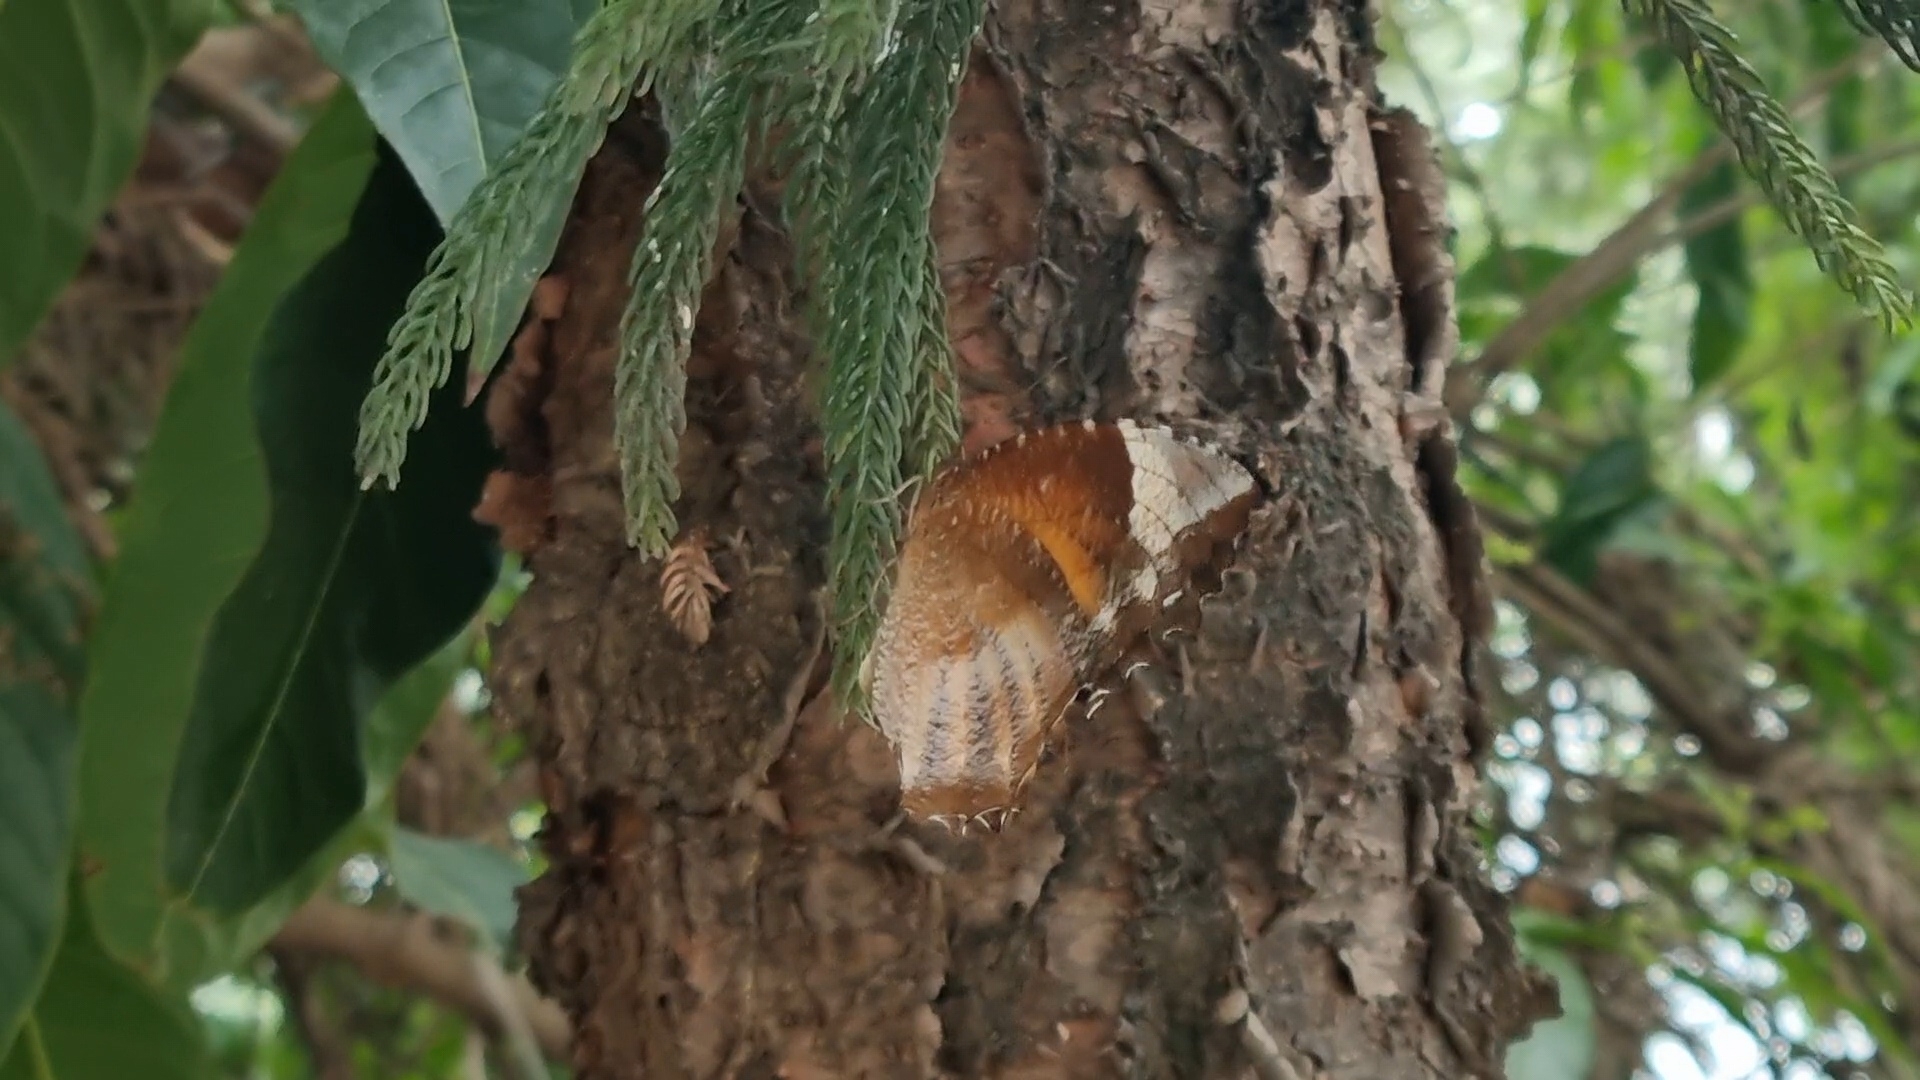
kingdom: Animalia
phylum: Arthropoda
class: Insecta
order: Lepidoptera
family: Nymphalidae
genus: Elymnias
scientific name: Elymnias caudata
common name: Tailed palmfly
